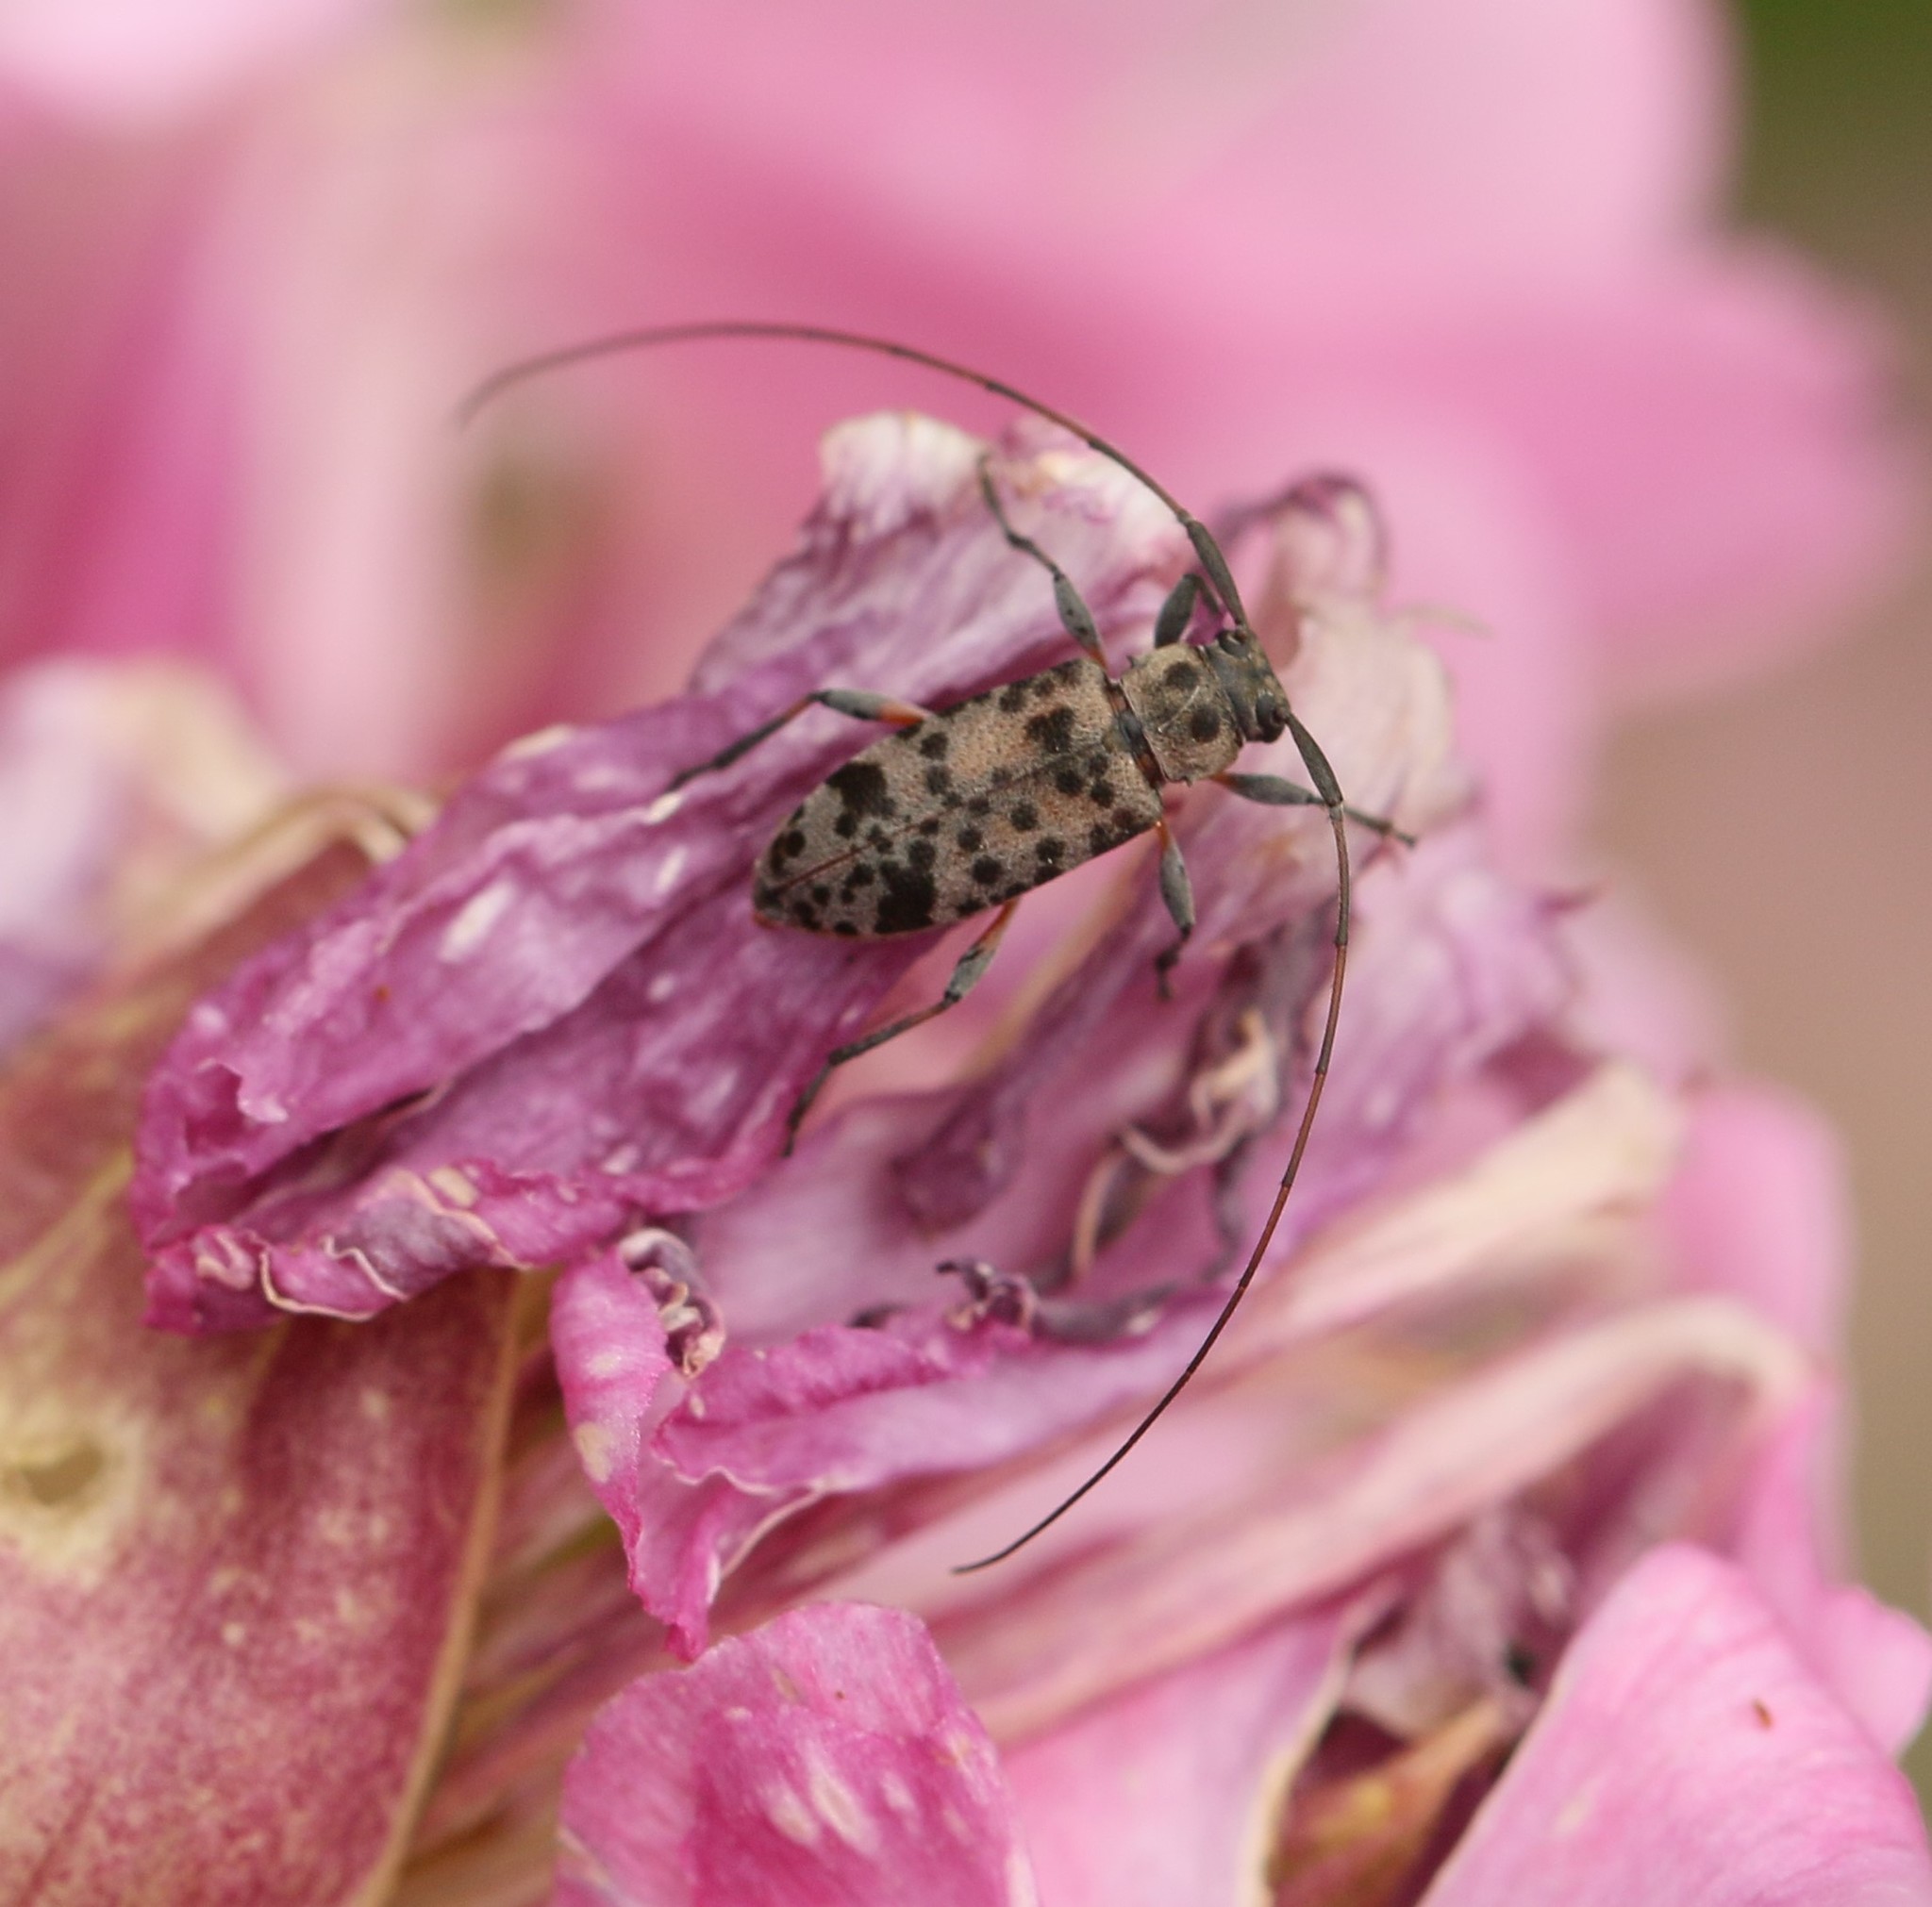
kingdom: Animalia
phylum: Arthropoda
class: Insecta
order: Coleoptera
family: Cerambycidae
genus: Hyperplatys
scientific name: Hyperplatys aspersa
